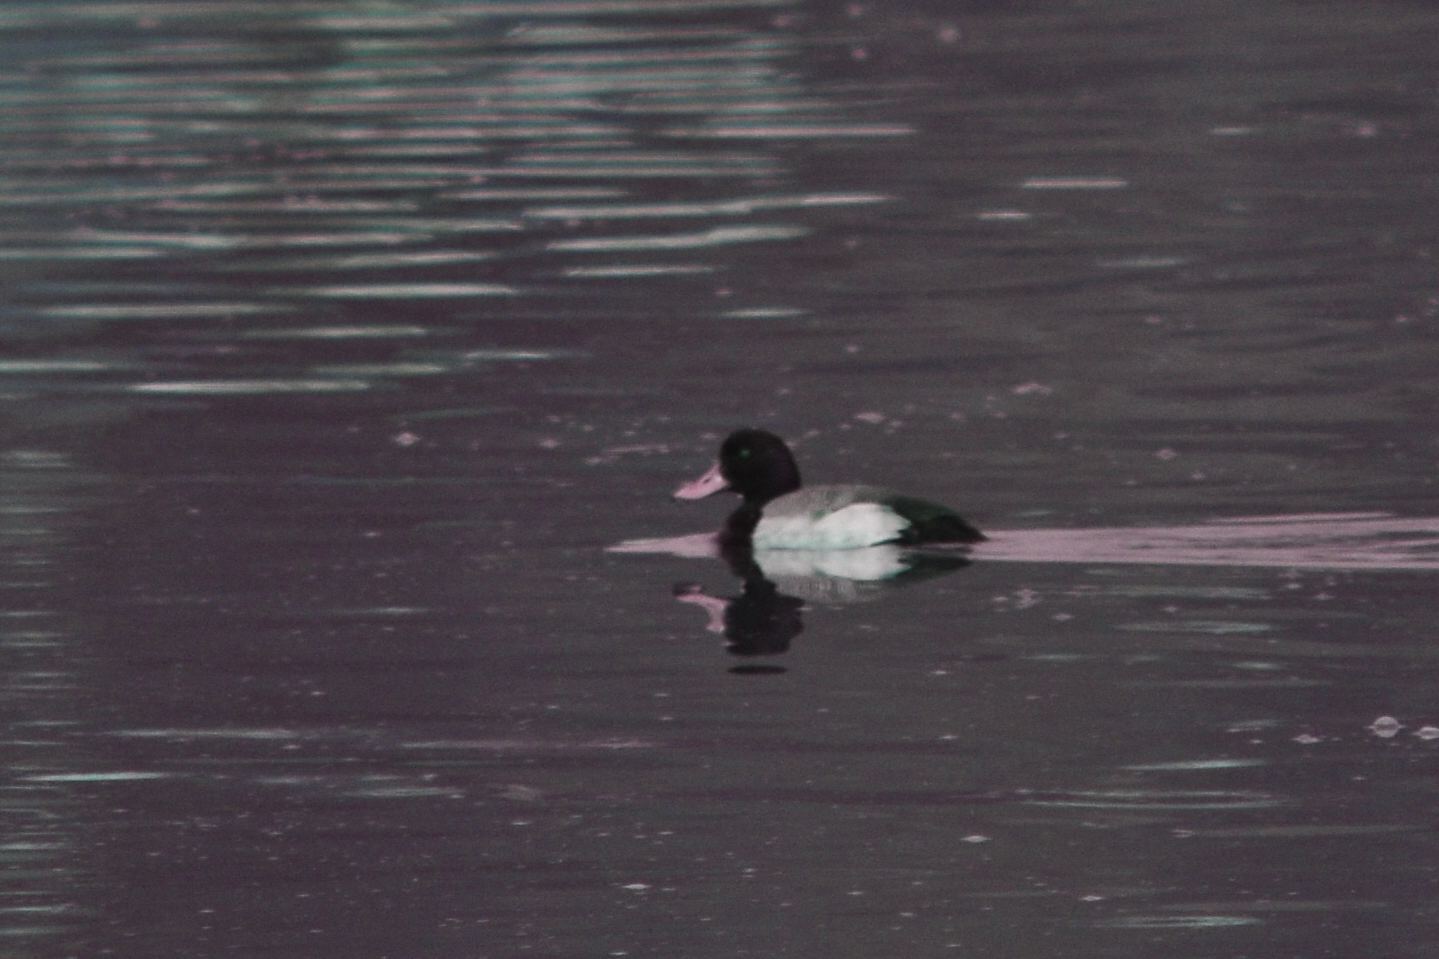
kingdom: Animalia
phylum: Chordata
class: Aves
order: Anseriformes
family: Anatidae
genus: Aythya
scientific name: Aythya marila
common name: Greater scaup
